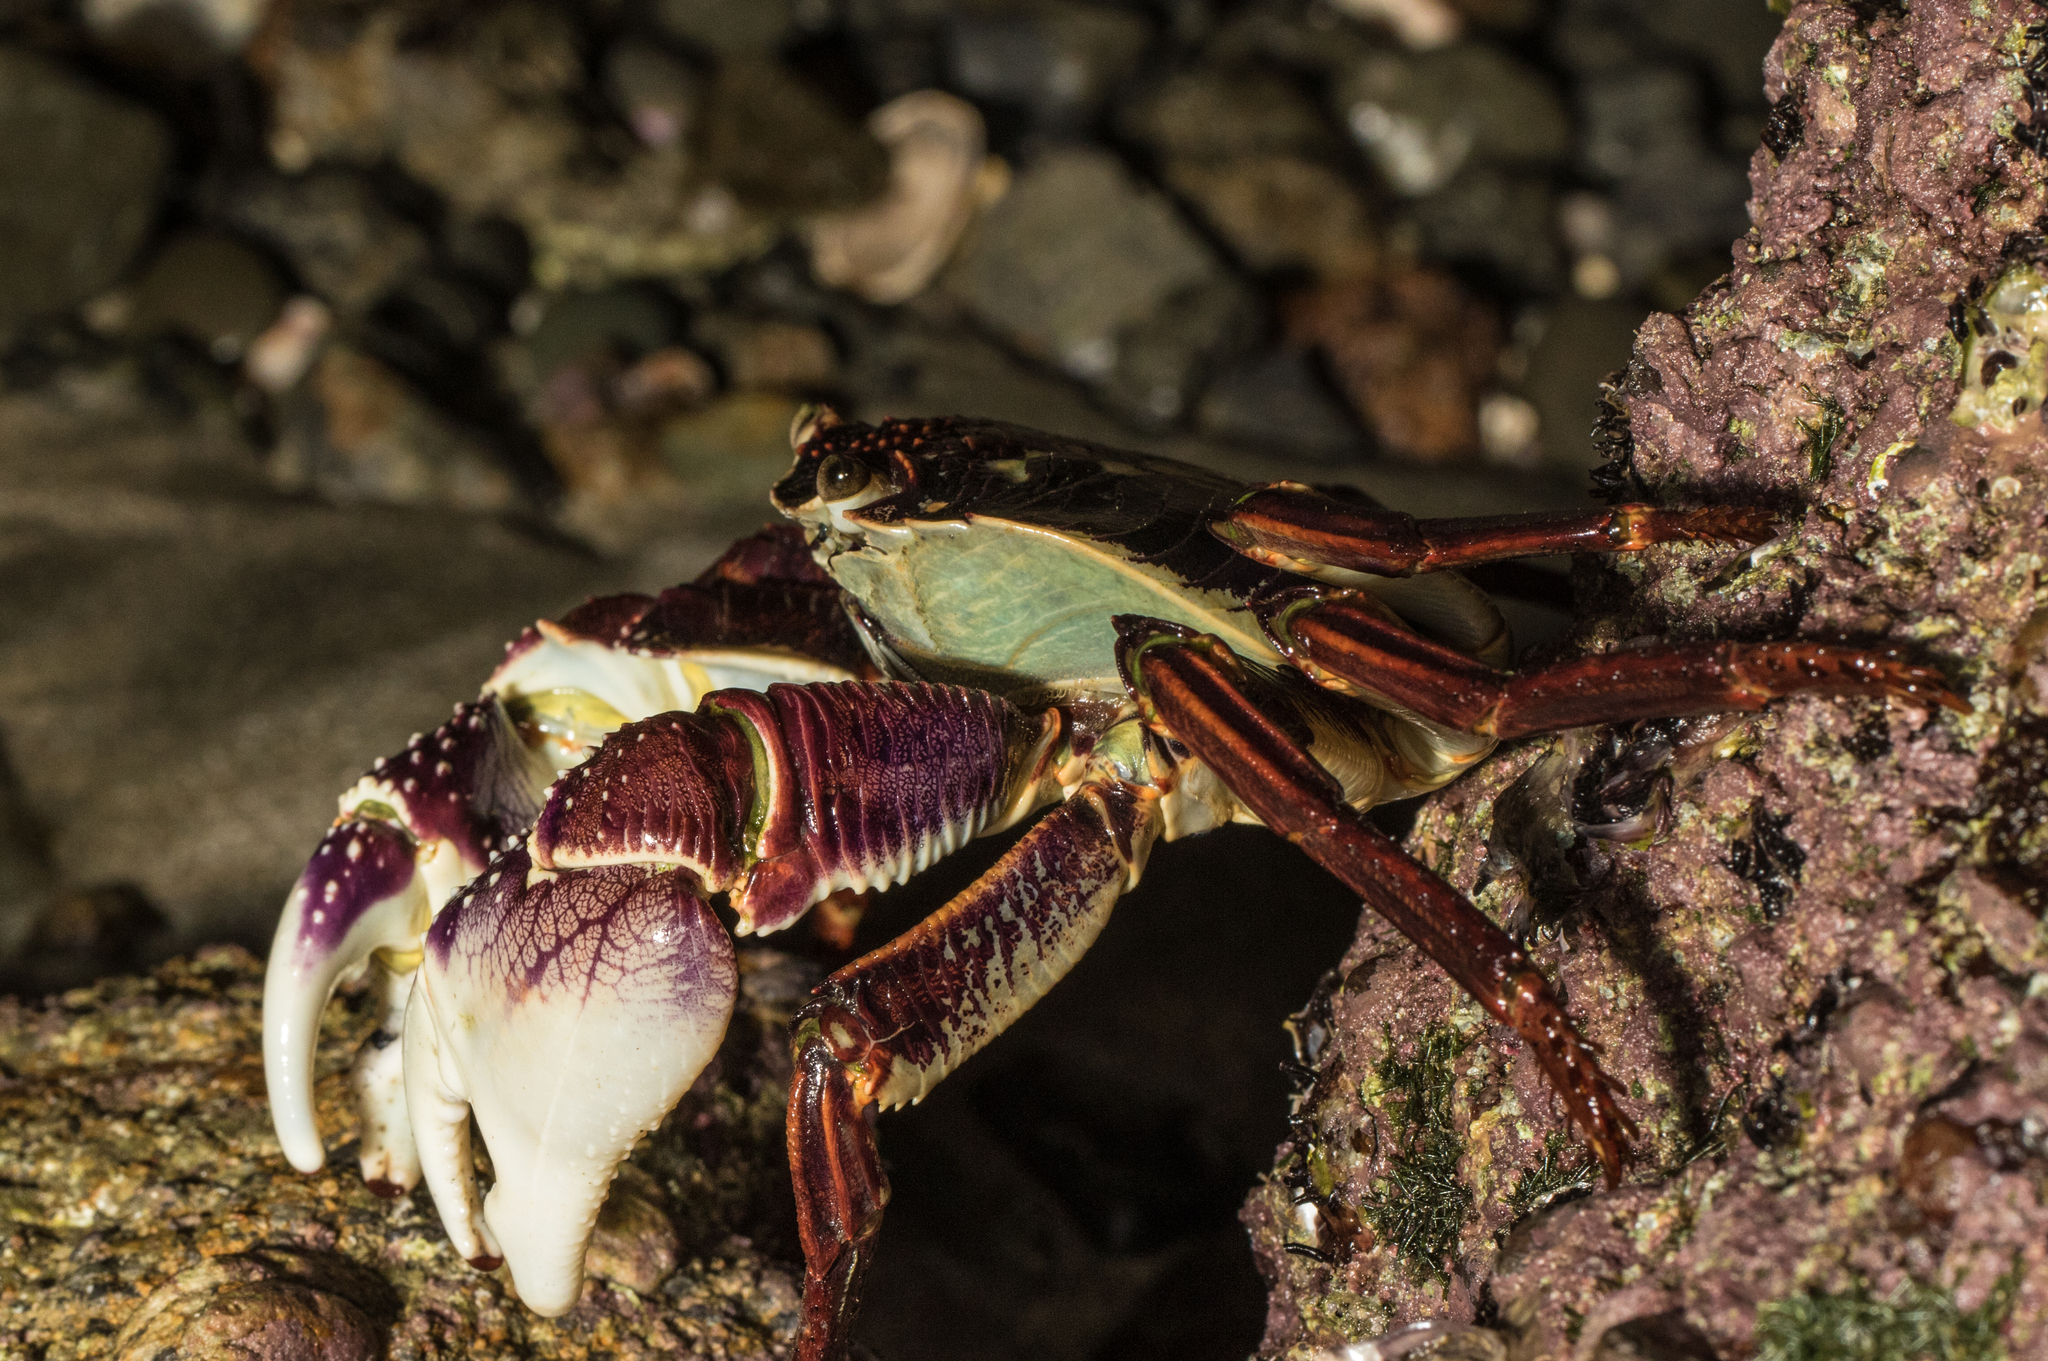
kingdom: Animalia
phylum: Arthropoda
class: Malacostraca
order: Decapoda
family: Grapsidae
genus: Leptograpsus
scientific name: Leptograpsus variegatus
